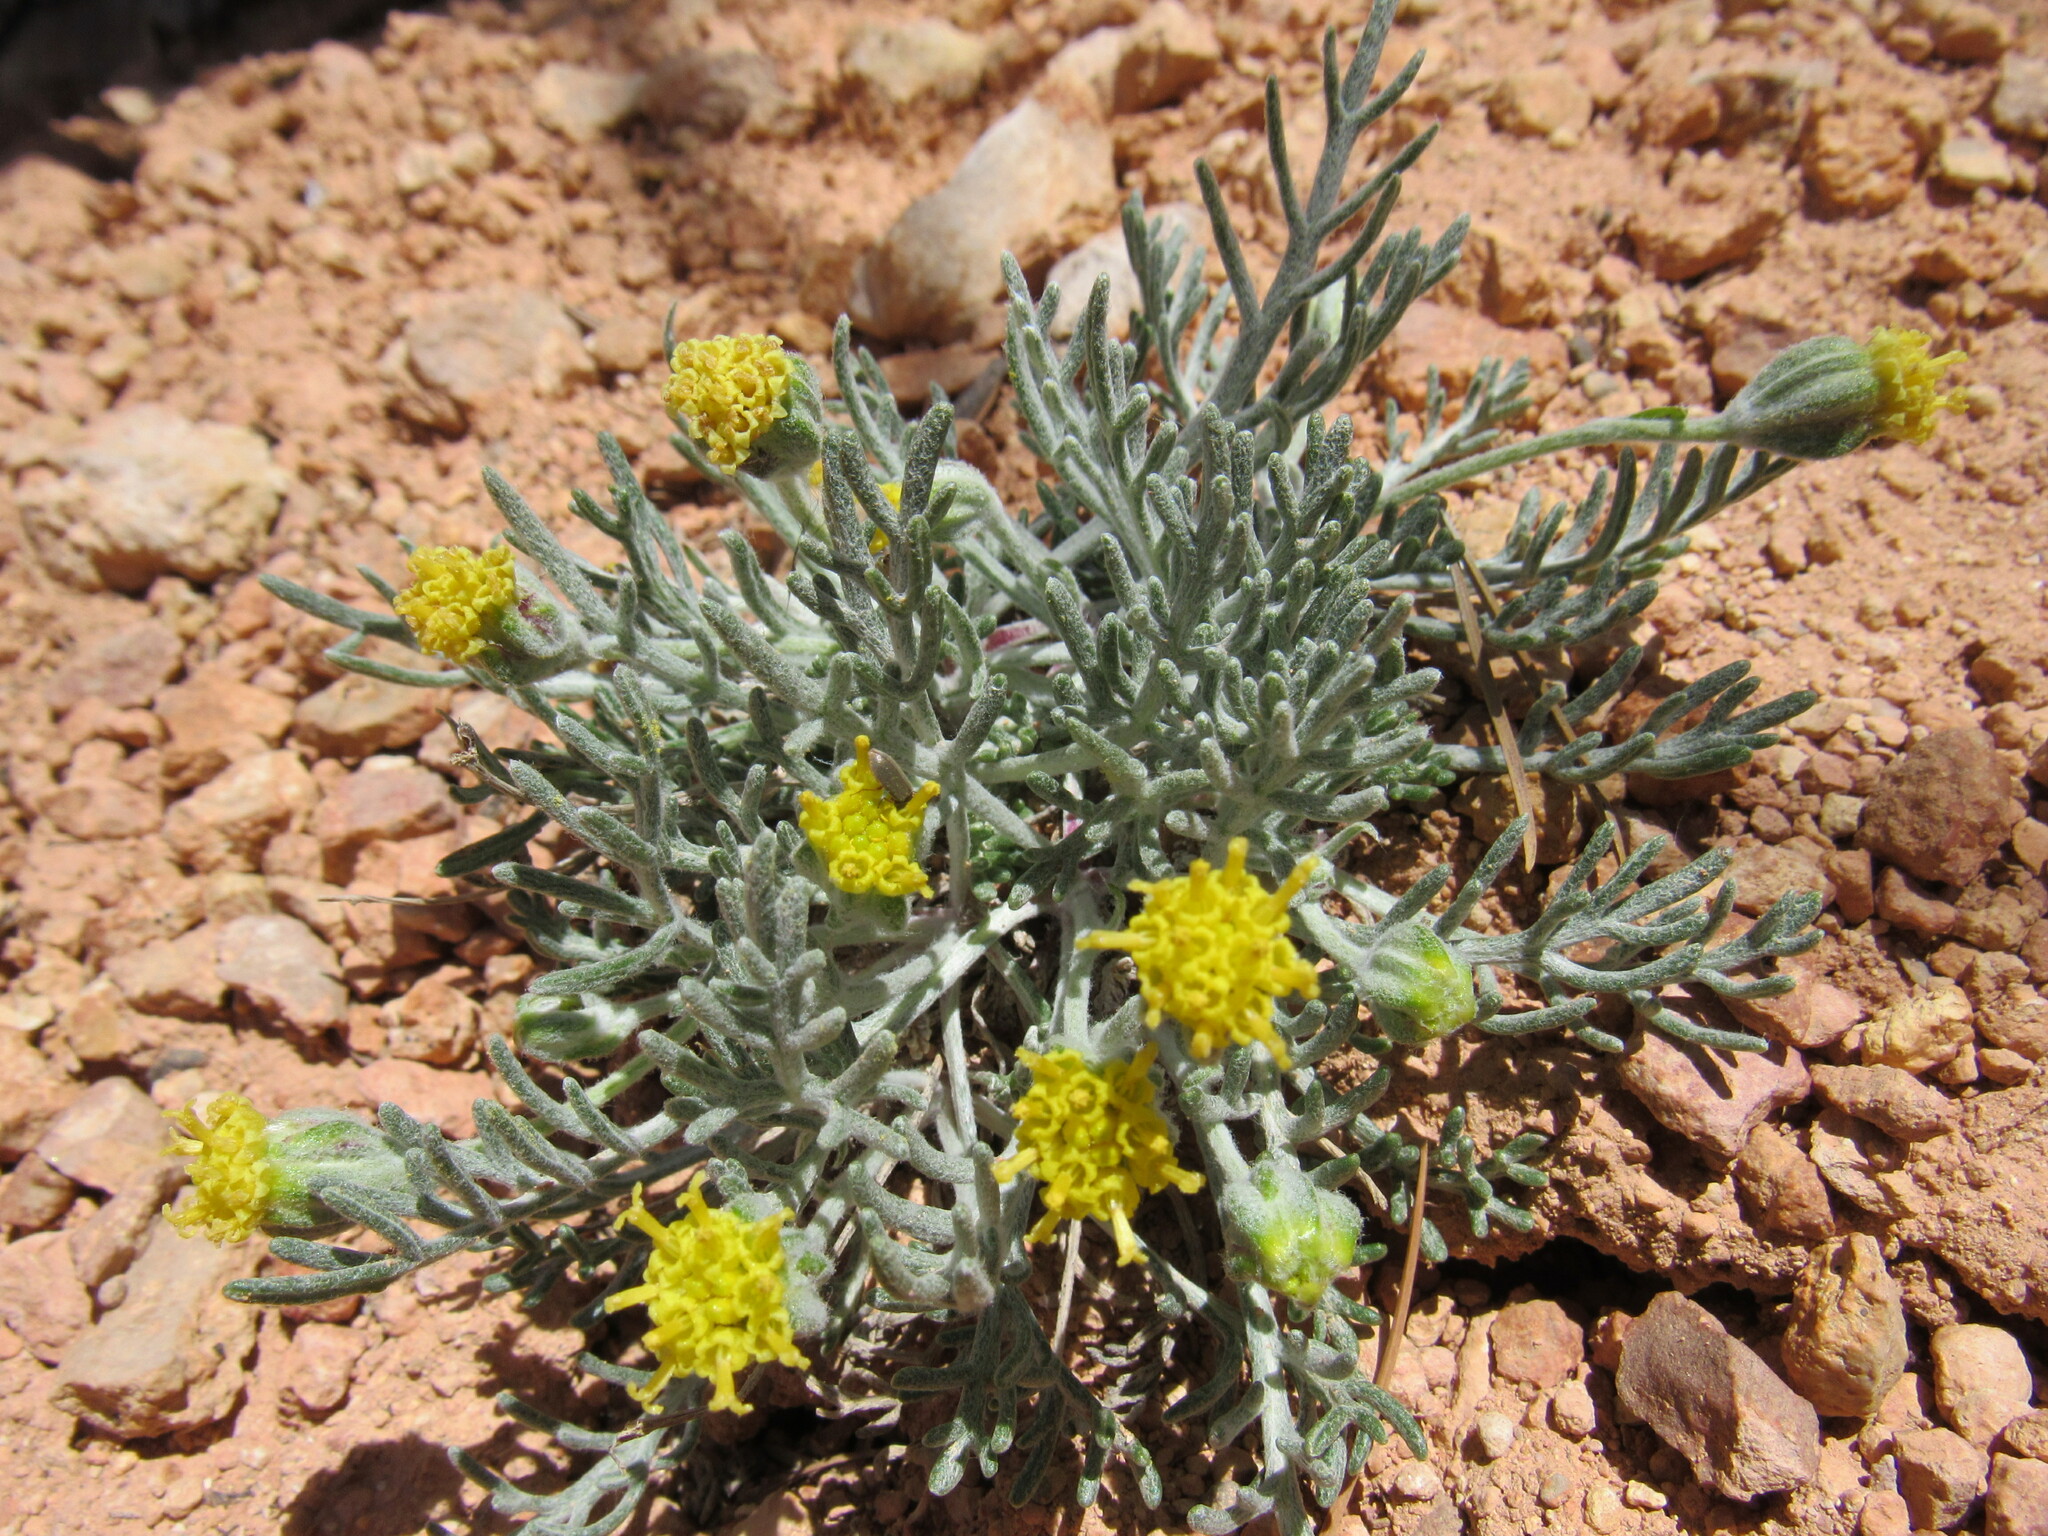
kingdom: Plantae
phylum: Tracheophyta
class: Magnoliopsida
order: Asterales
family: Asteraceae
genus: Hymenopappus
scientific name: Hymenopappus filifolius
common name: Columbia cutleaf
